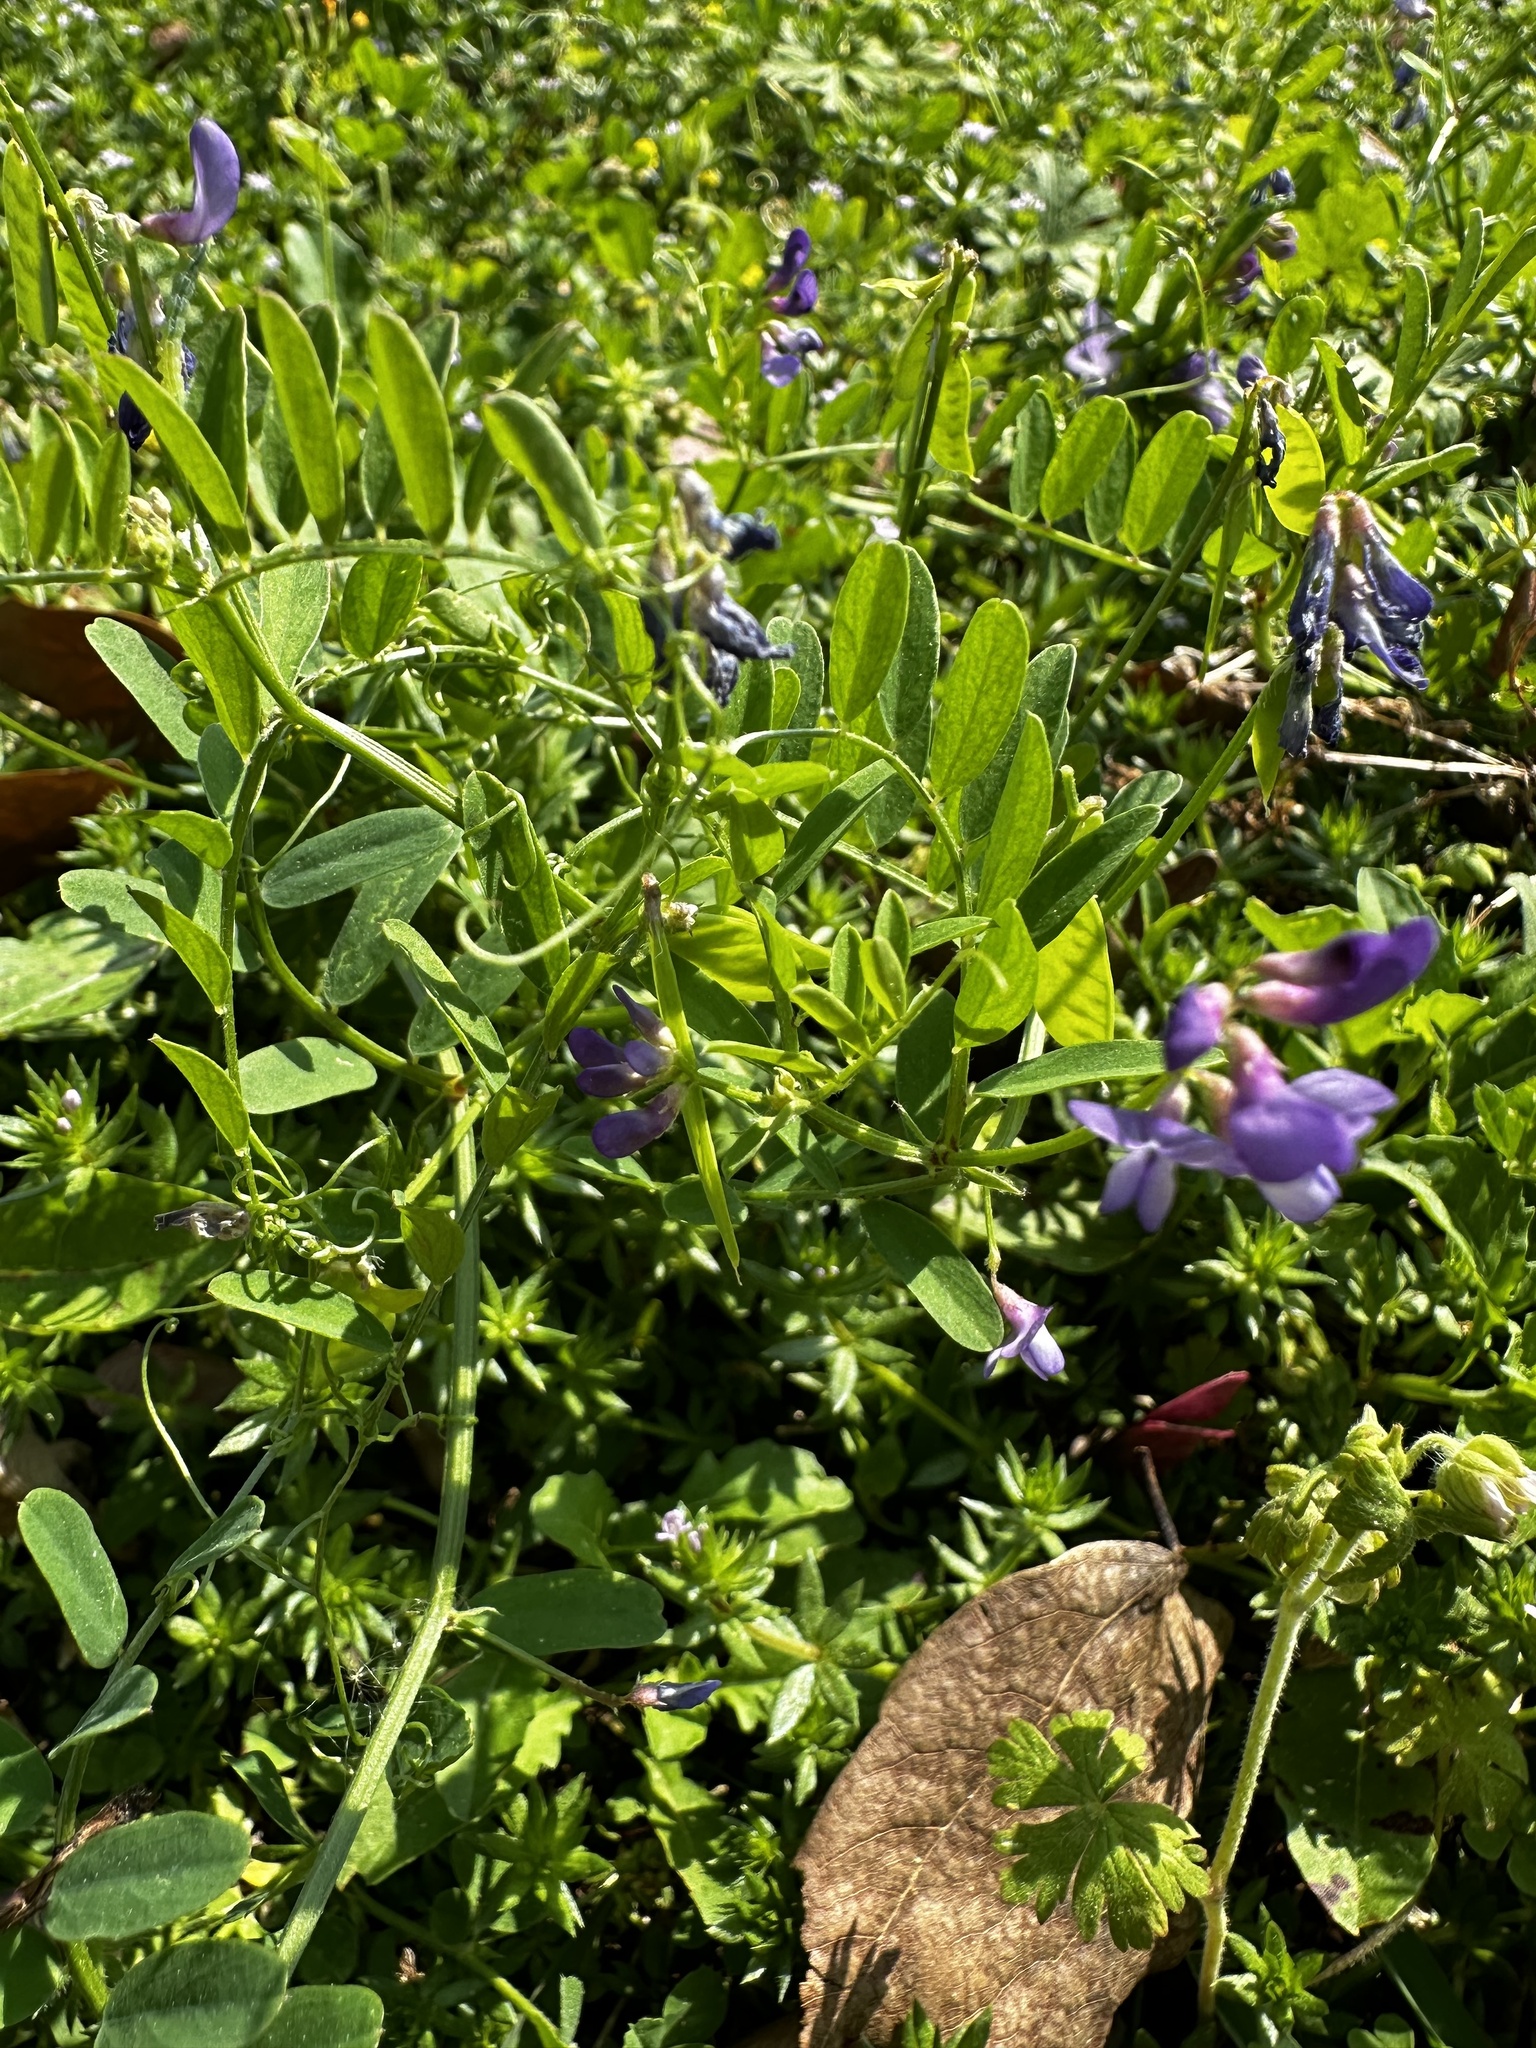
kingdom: Plantae
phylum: Tracheophyta
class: Magnoliopsida
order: Fabales
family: Fabaceae
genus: Vicia
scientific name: Vicia ludoviciana
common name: Louisiana vetch
